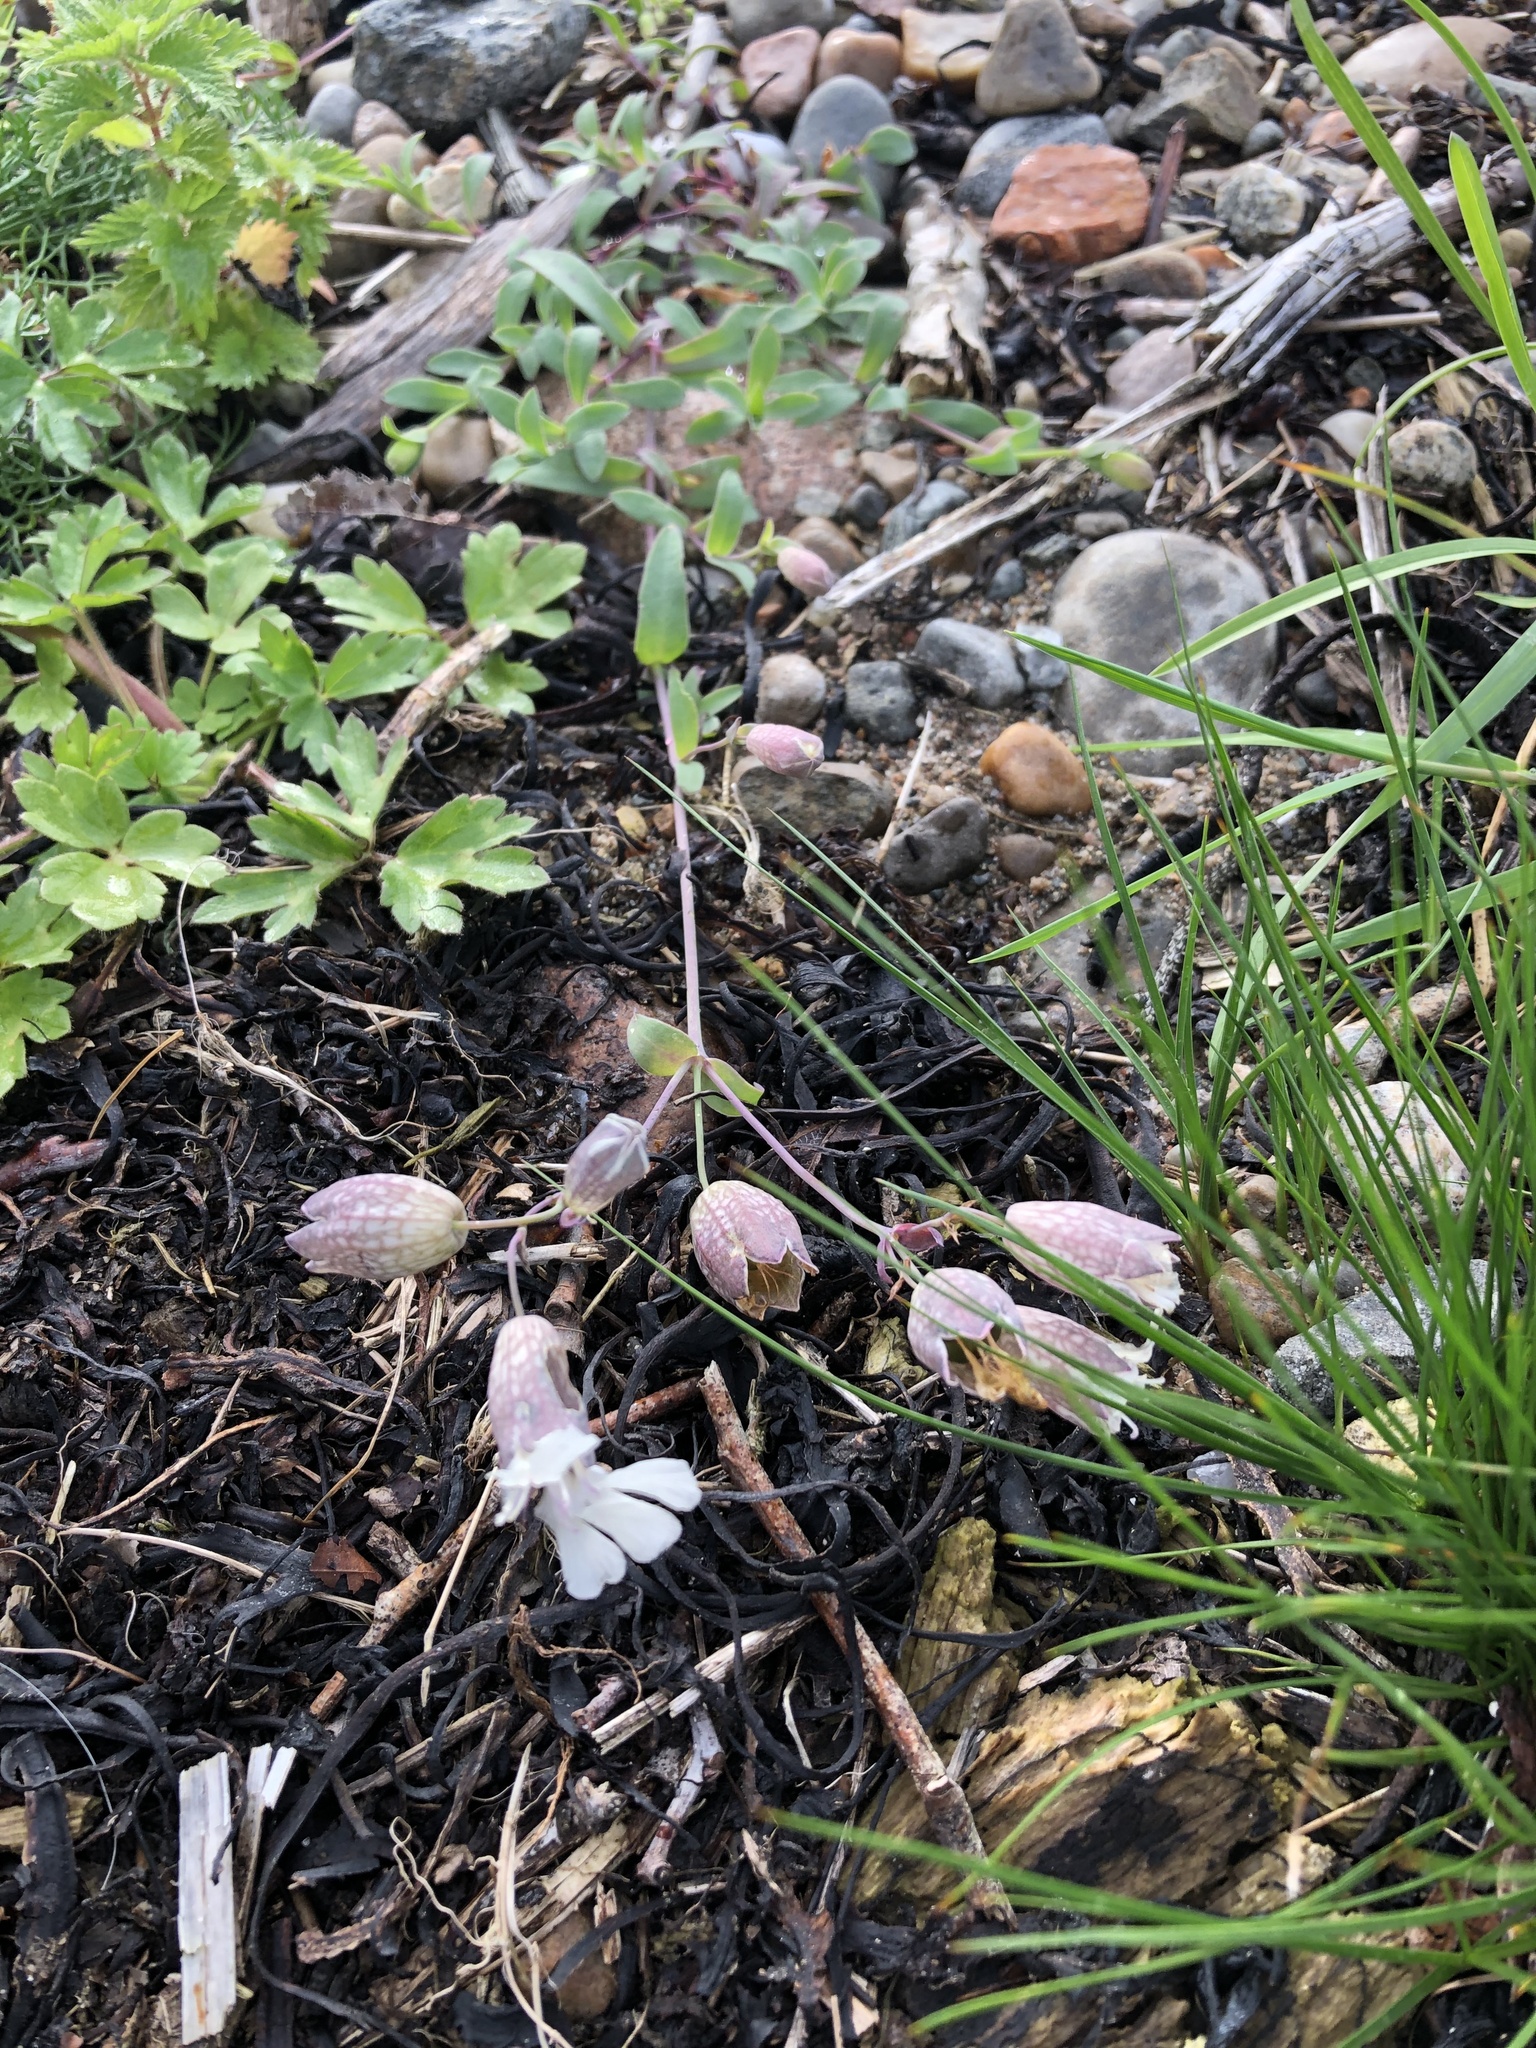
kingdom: Plantae
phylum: Tracheophyta
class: Magnoliopsida
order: Caryophyllales
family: Caryophyllaceae
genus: Silene
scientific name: Silene uniflora
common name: Sea campion
